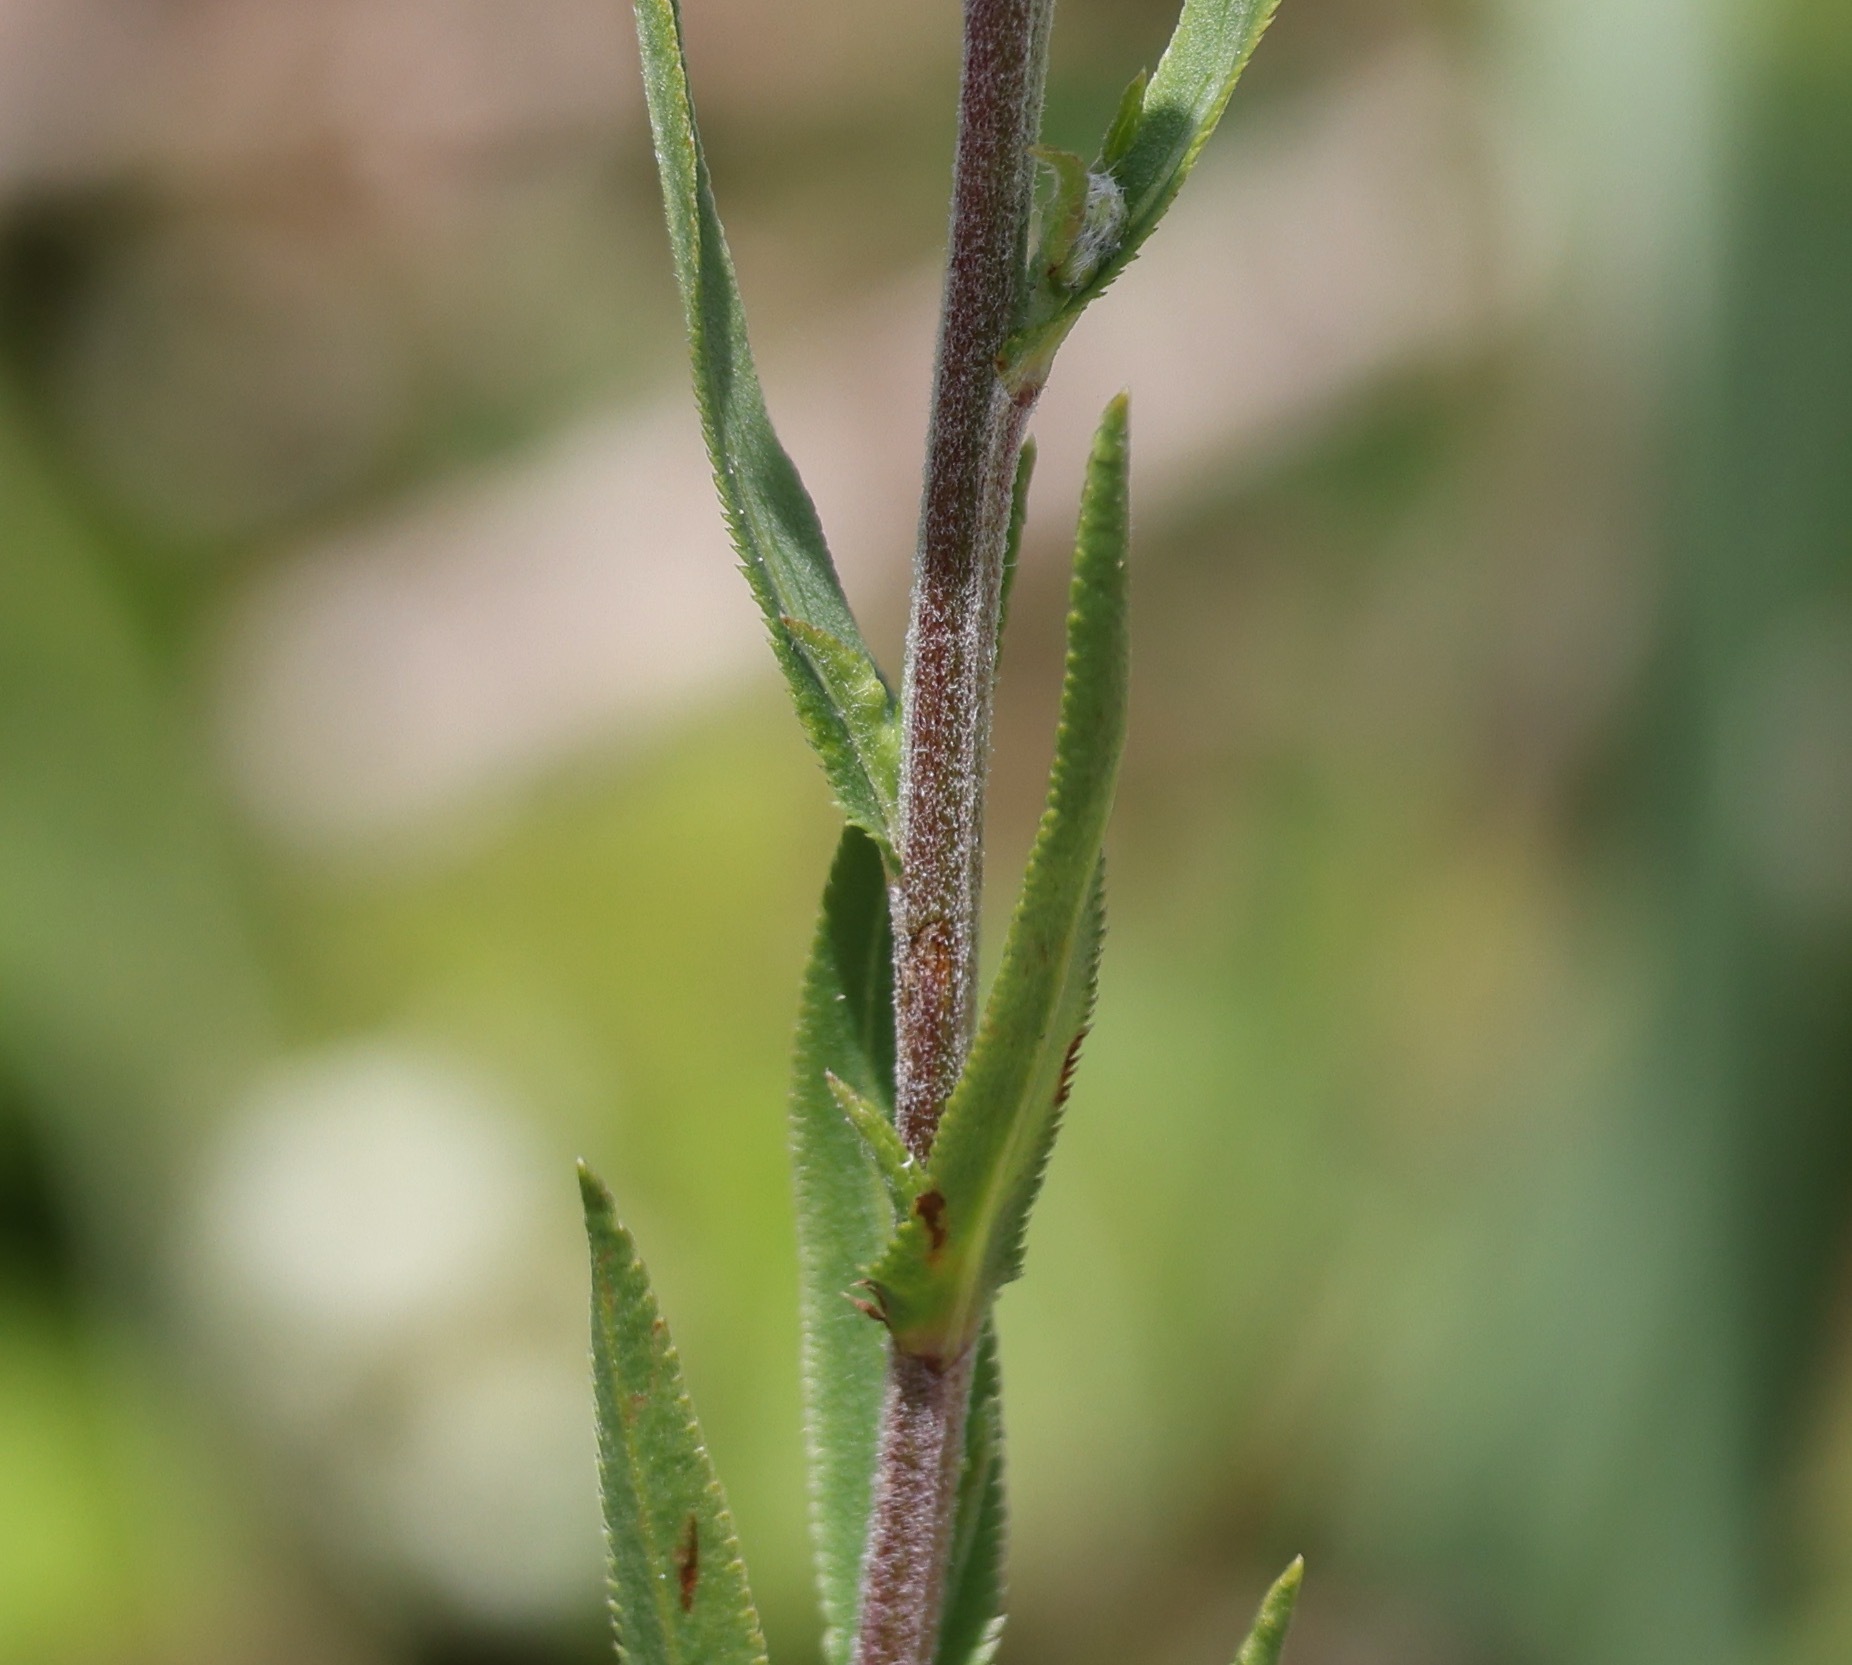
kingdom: Plantae
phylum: Tracheophyta
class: Magnoliopsida
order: Asterales
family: Asteraceae
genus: Achillea
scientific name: Achillea ptarmica
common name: Sneezeweed
